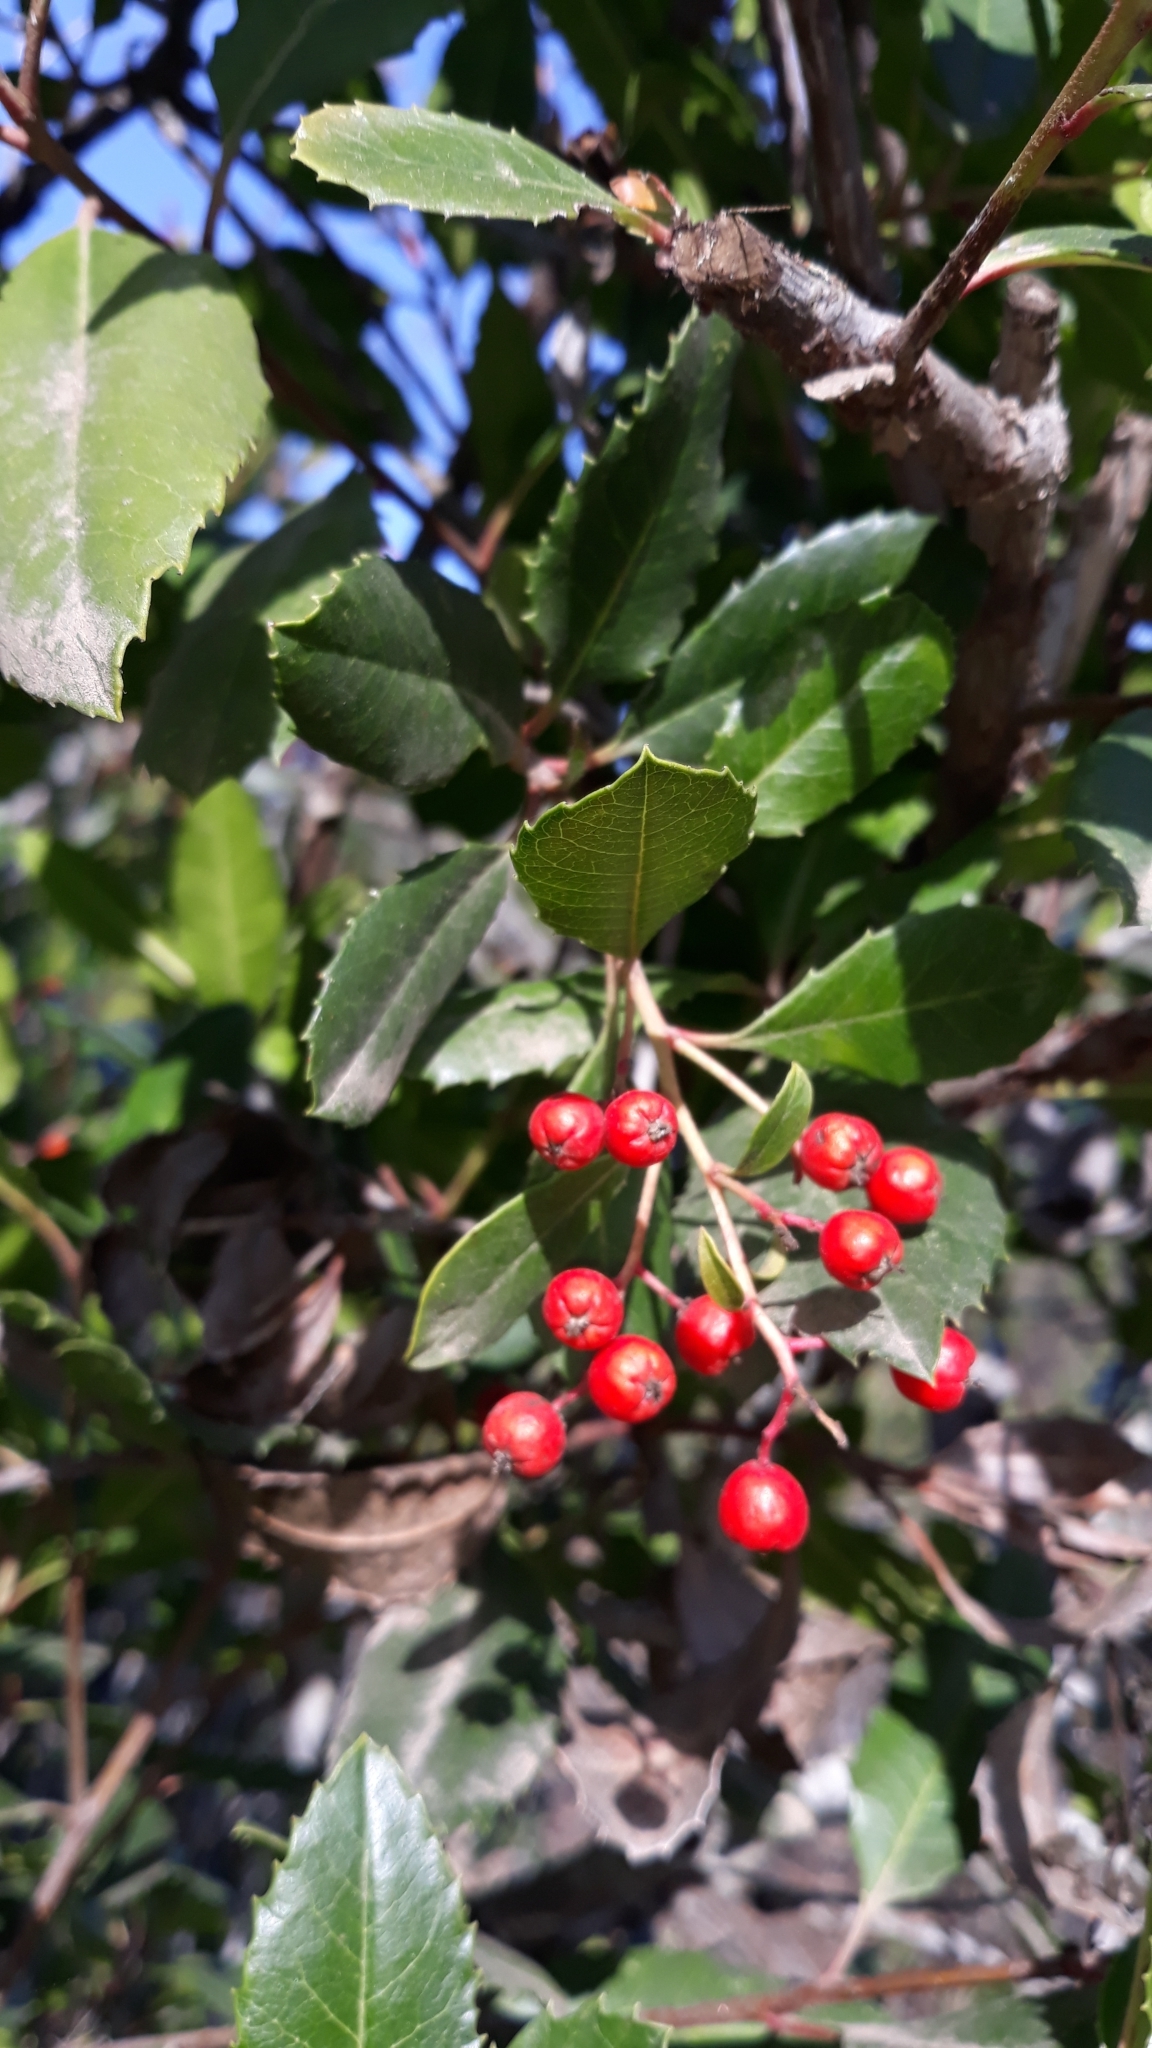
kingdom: Plantae
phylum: Tracheophyta
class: Magnoliopsida
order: Rosales
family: Rosaceae
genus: Heteromeles
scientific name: Heteromeles arbutifolia
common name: California-holly
